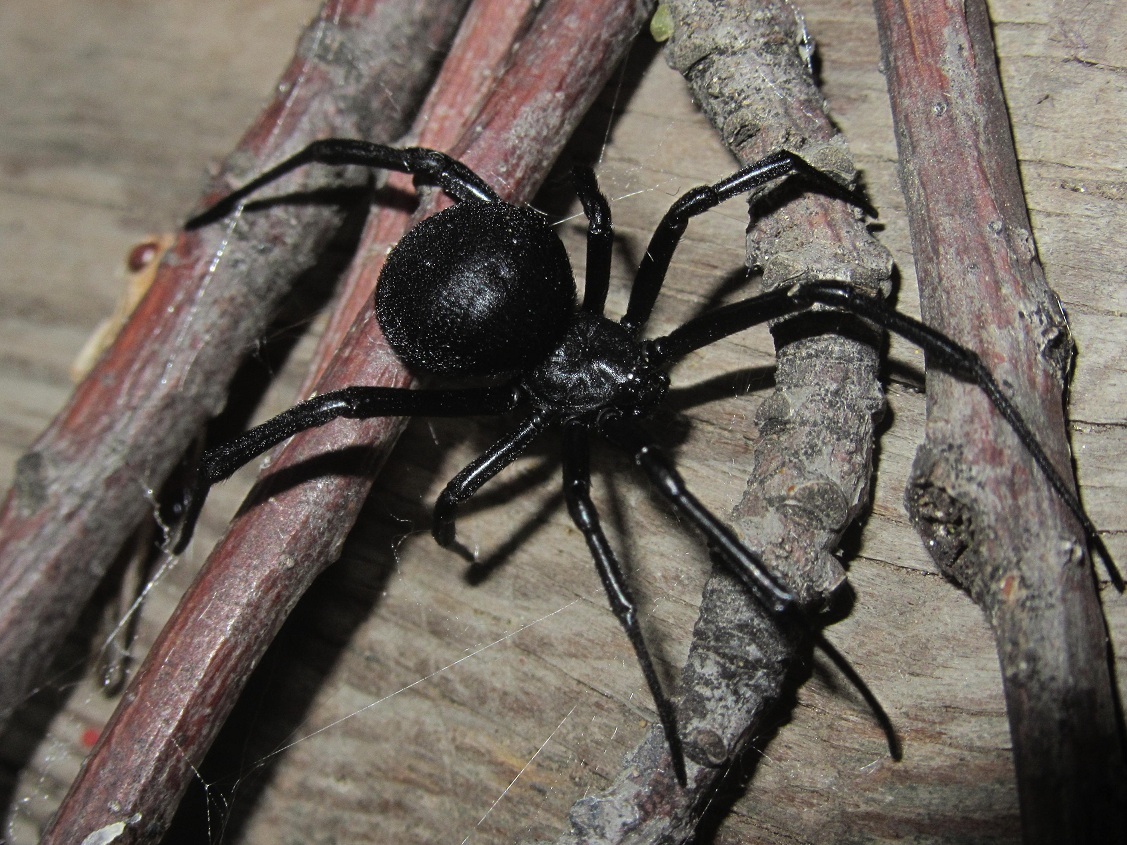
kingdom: Animalia
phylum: Arthropoda
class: Arachnida
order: Araneae
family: Theridiidae
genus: Latrodectus
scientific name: Latrodectus tredecimguttatus
